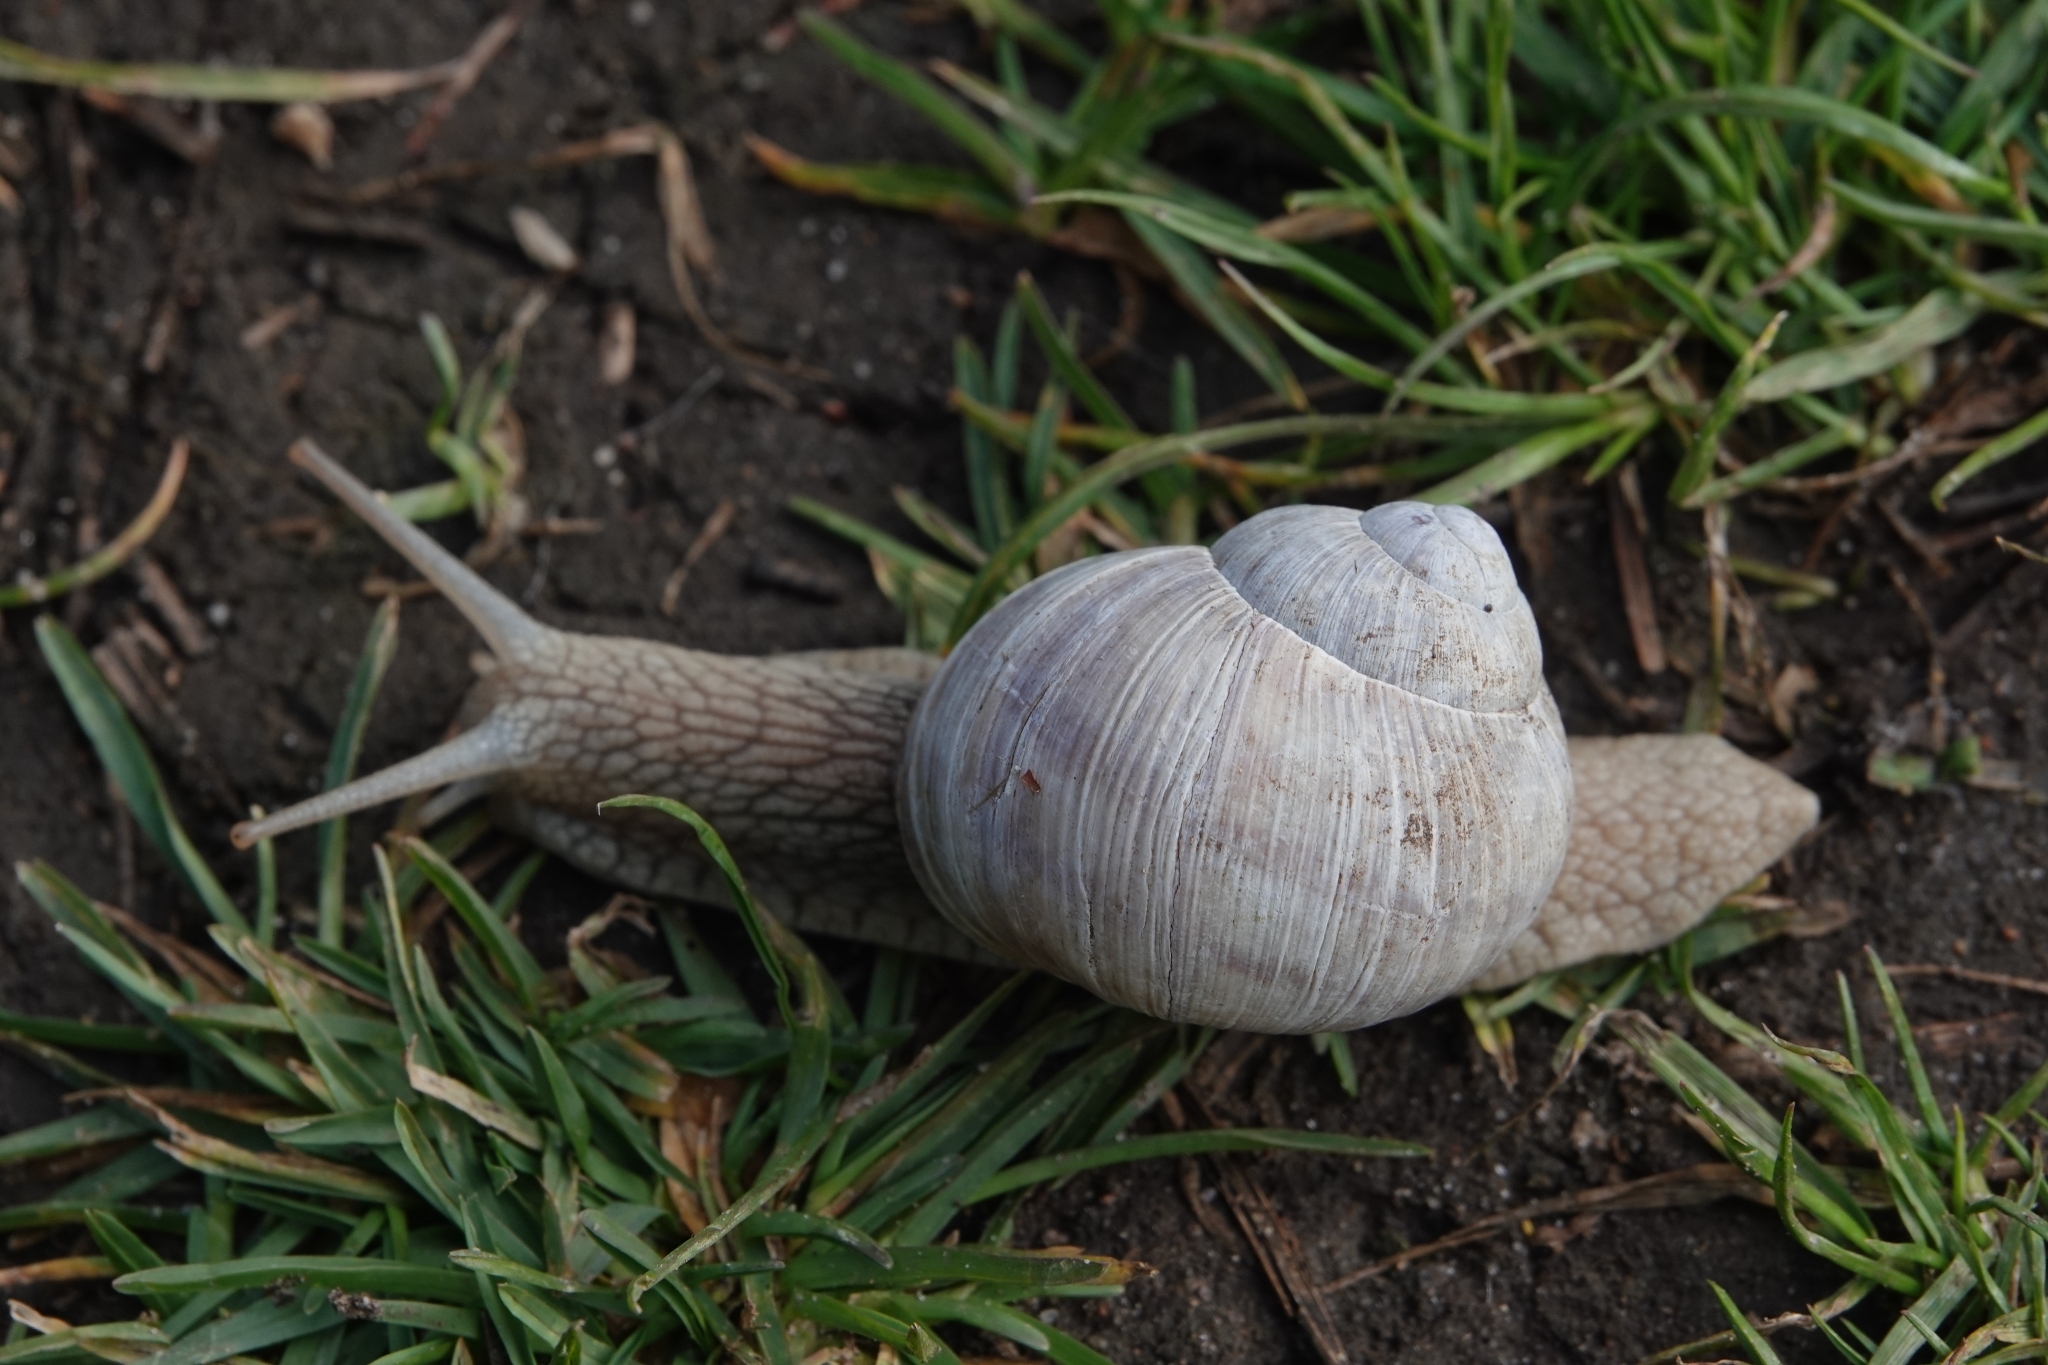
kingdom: Animalia
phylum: Mollusca
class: Gastropoda
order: Stylommatophora
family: Helicidae
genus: Helix
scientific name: Helix pomatia
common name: Roman snail
